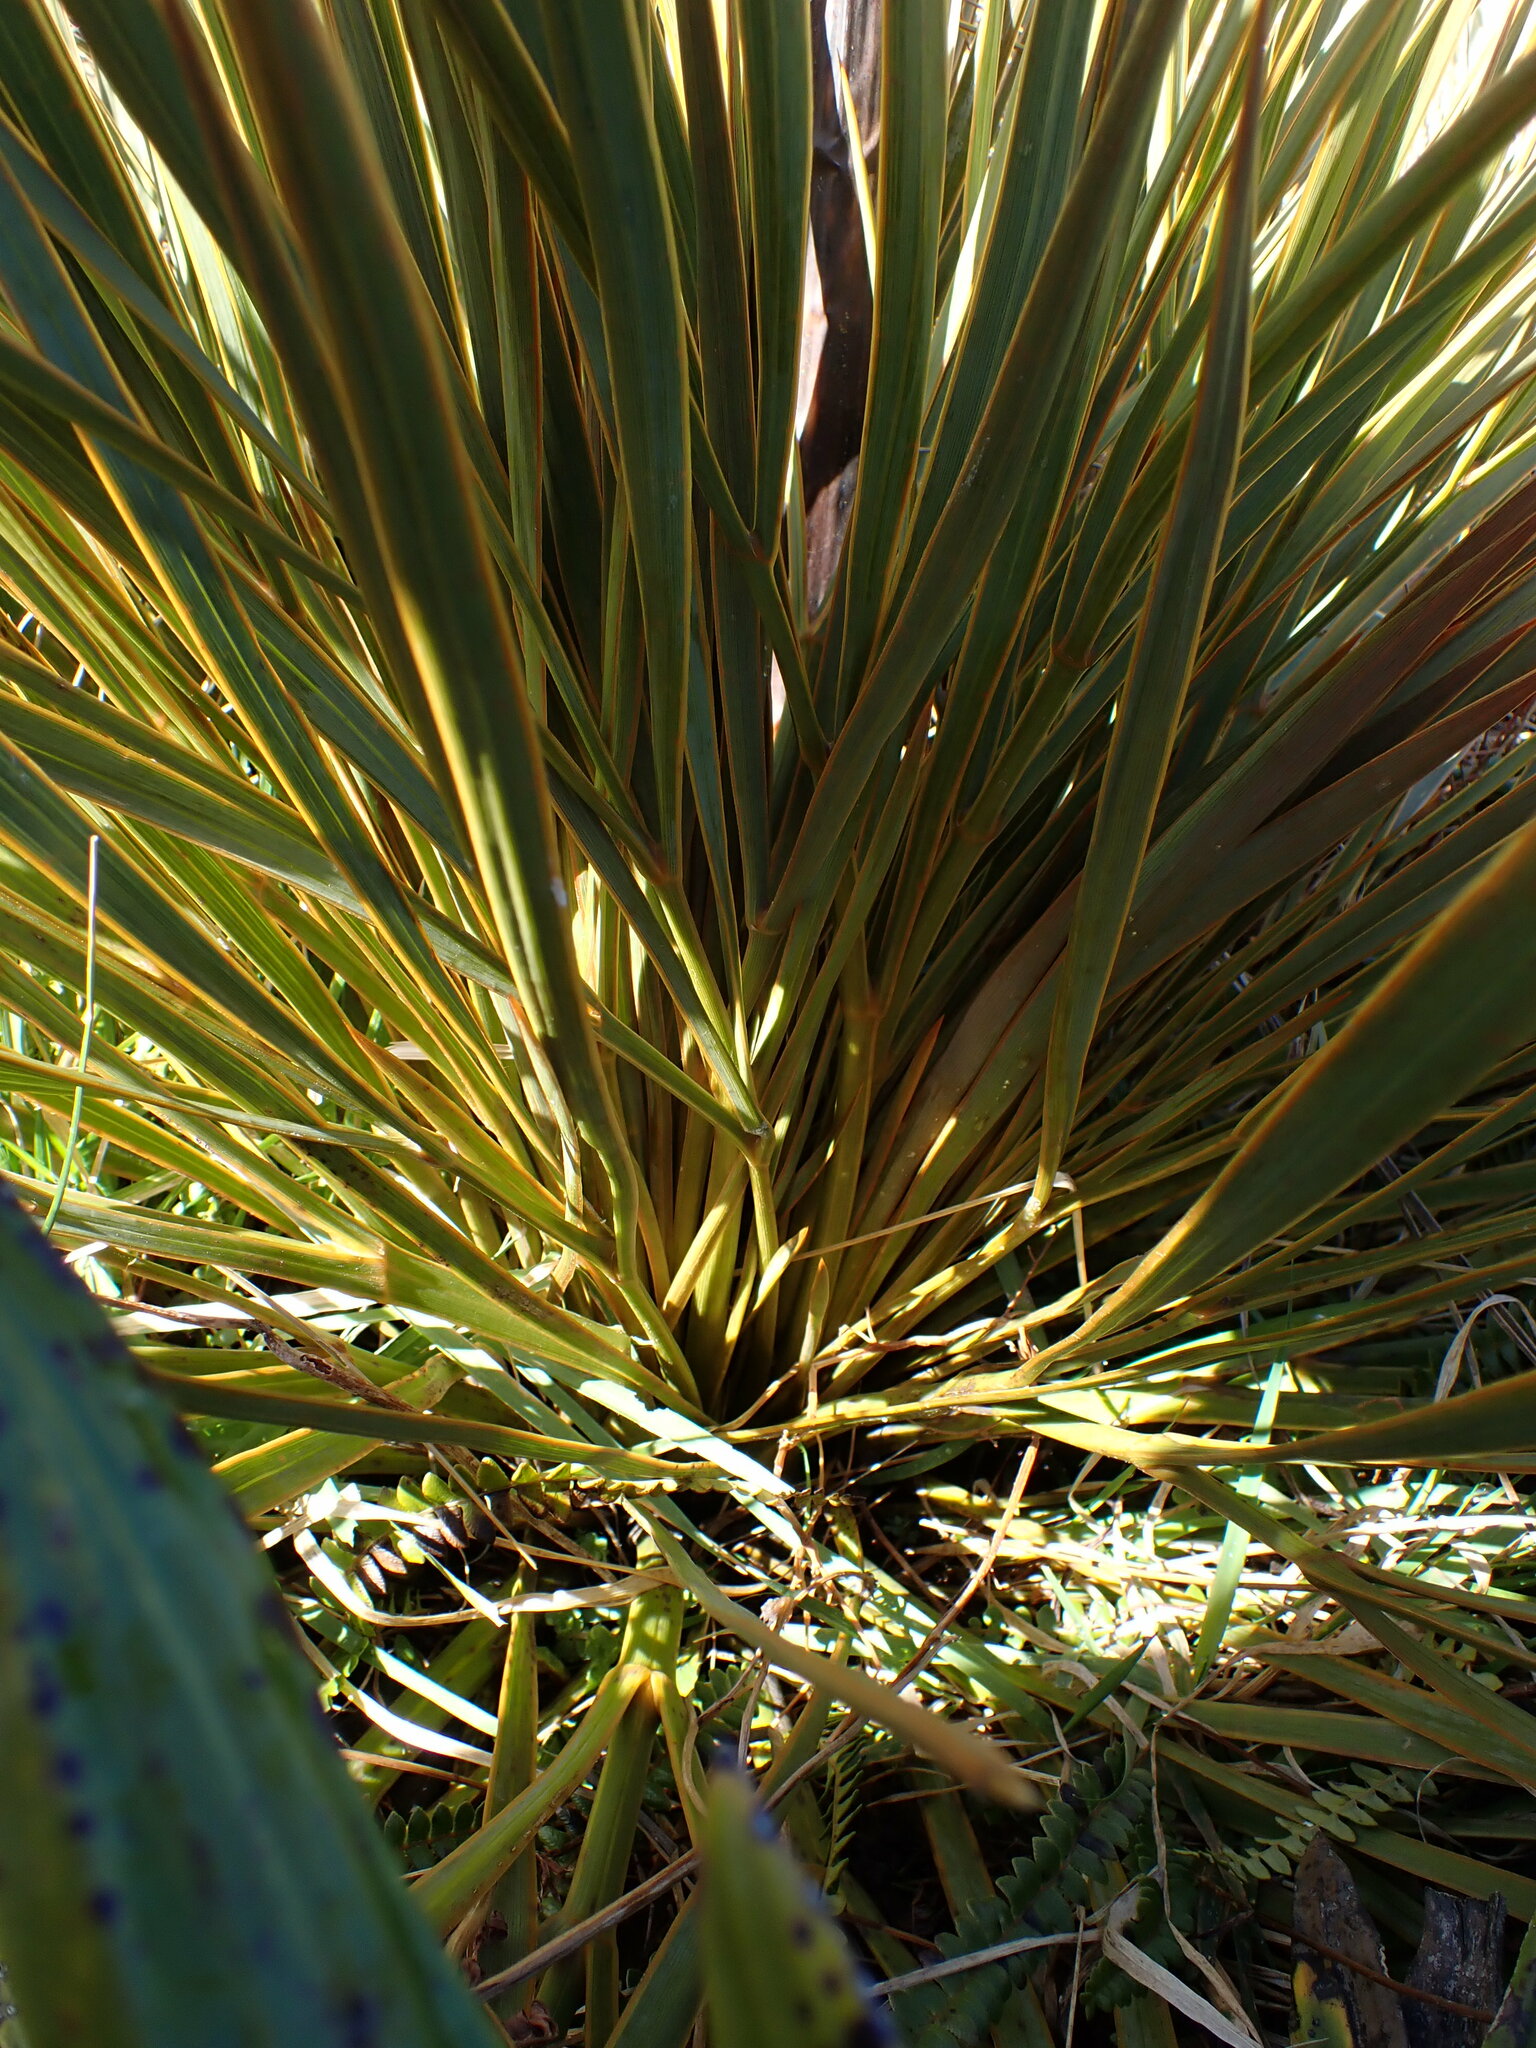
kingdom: Plantae
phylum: Tracheophyta
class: Magnoliopsida
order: Apiales
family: Apiaceae
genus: Aciphylla
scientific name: Aciphylla aurea
